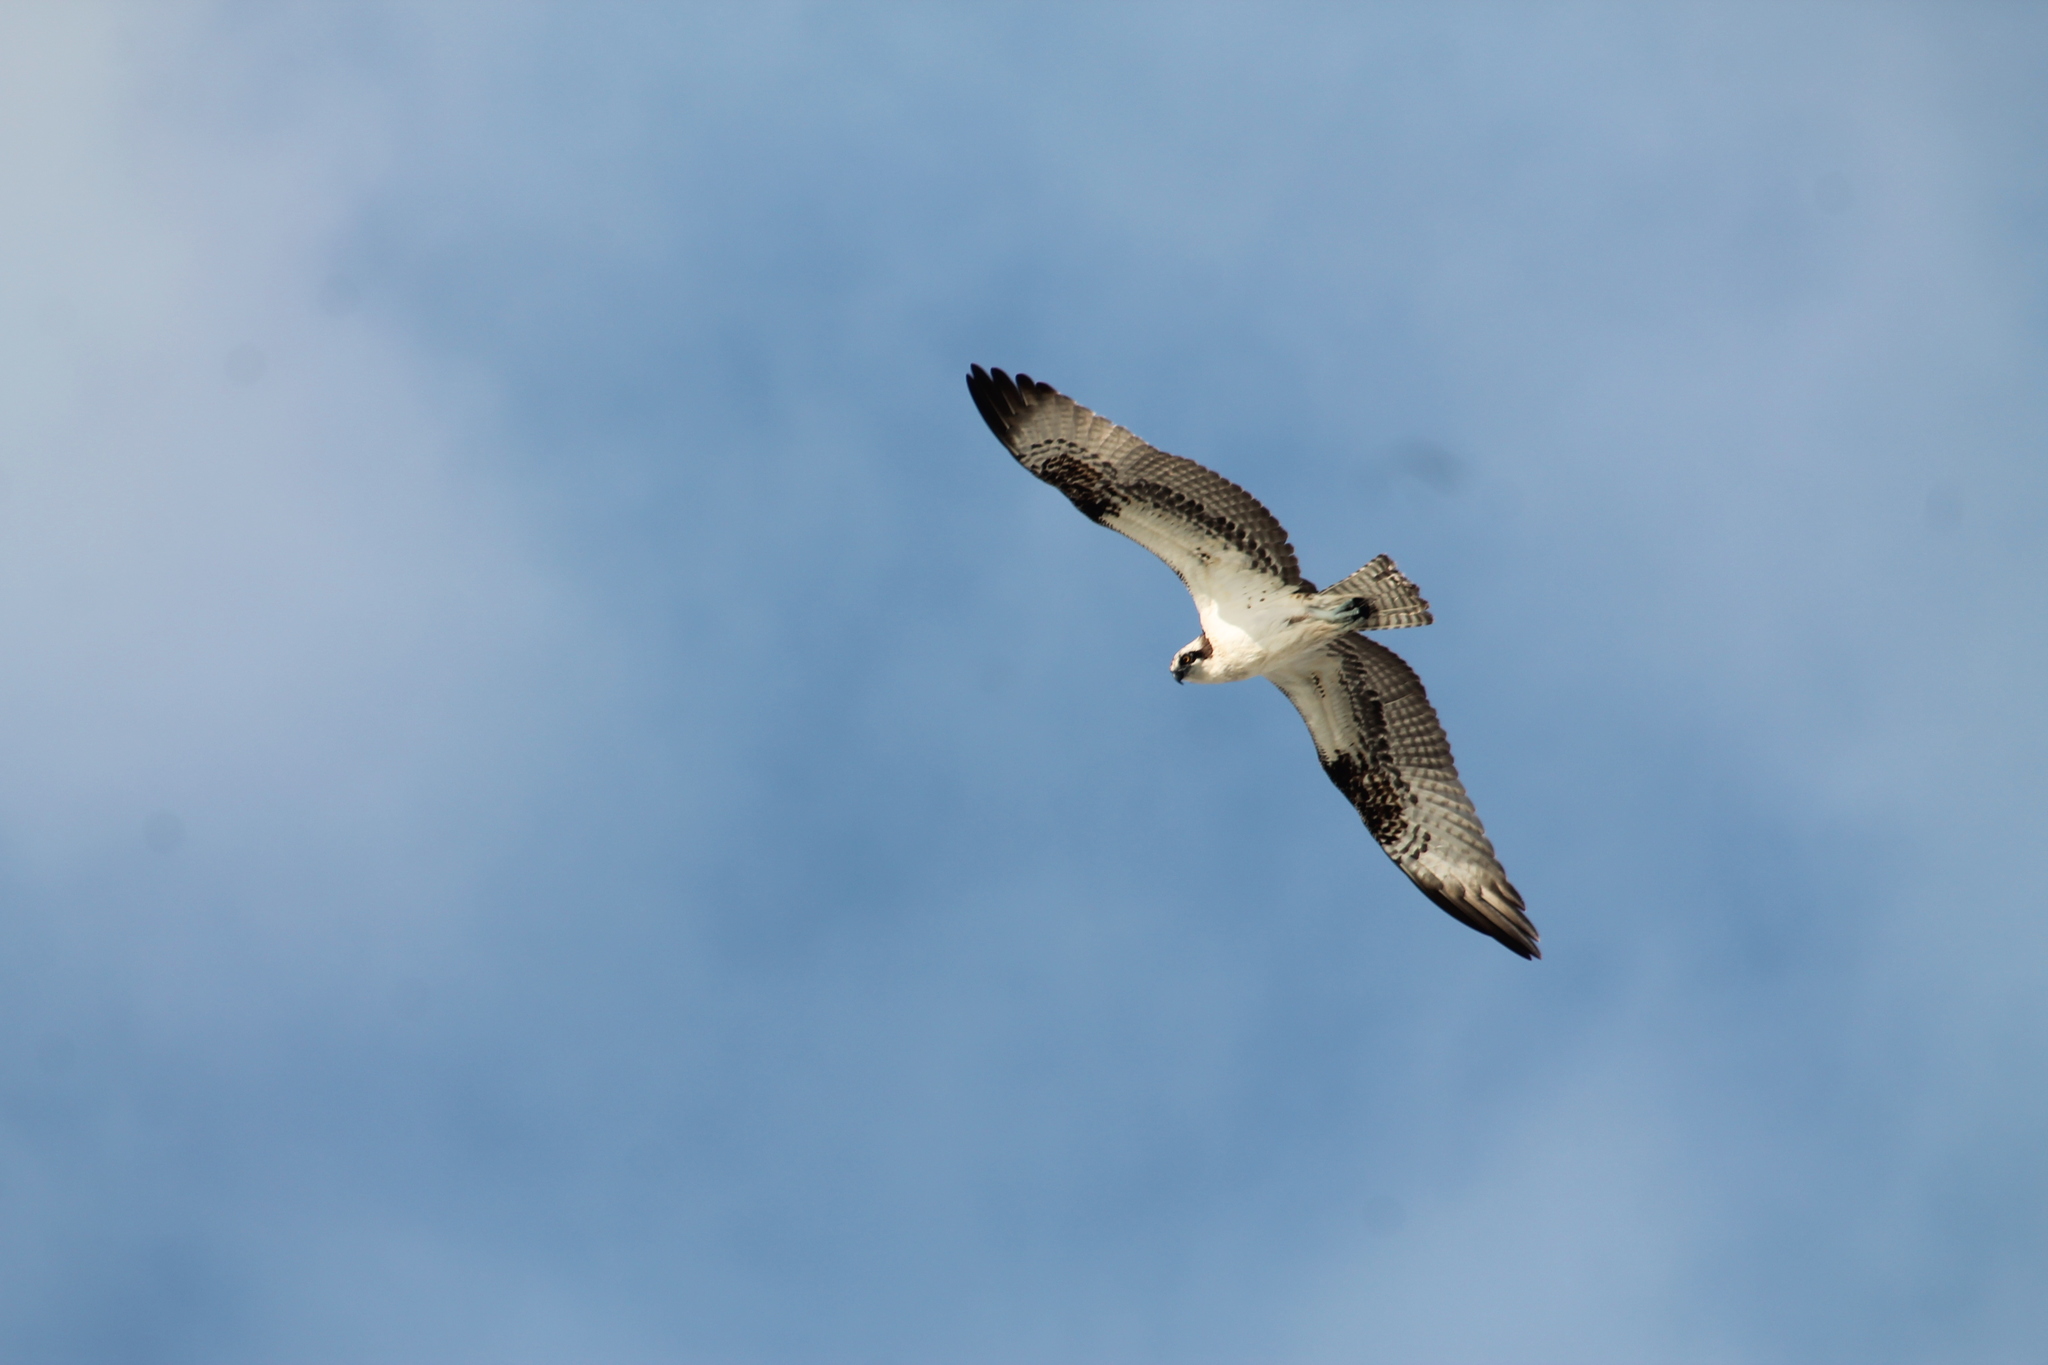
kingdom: Animalia
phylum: Chordata
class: Aves
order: Accipitriformes
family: Pandionidae
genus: Pandion
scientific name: Pandion haliaetus
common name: Osprey
